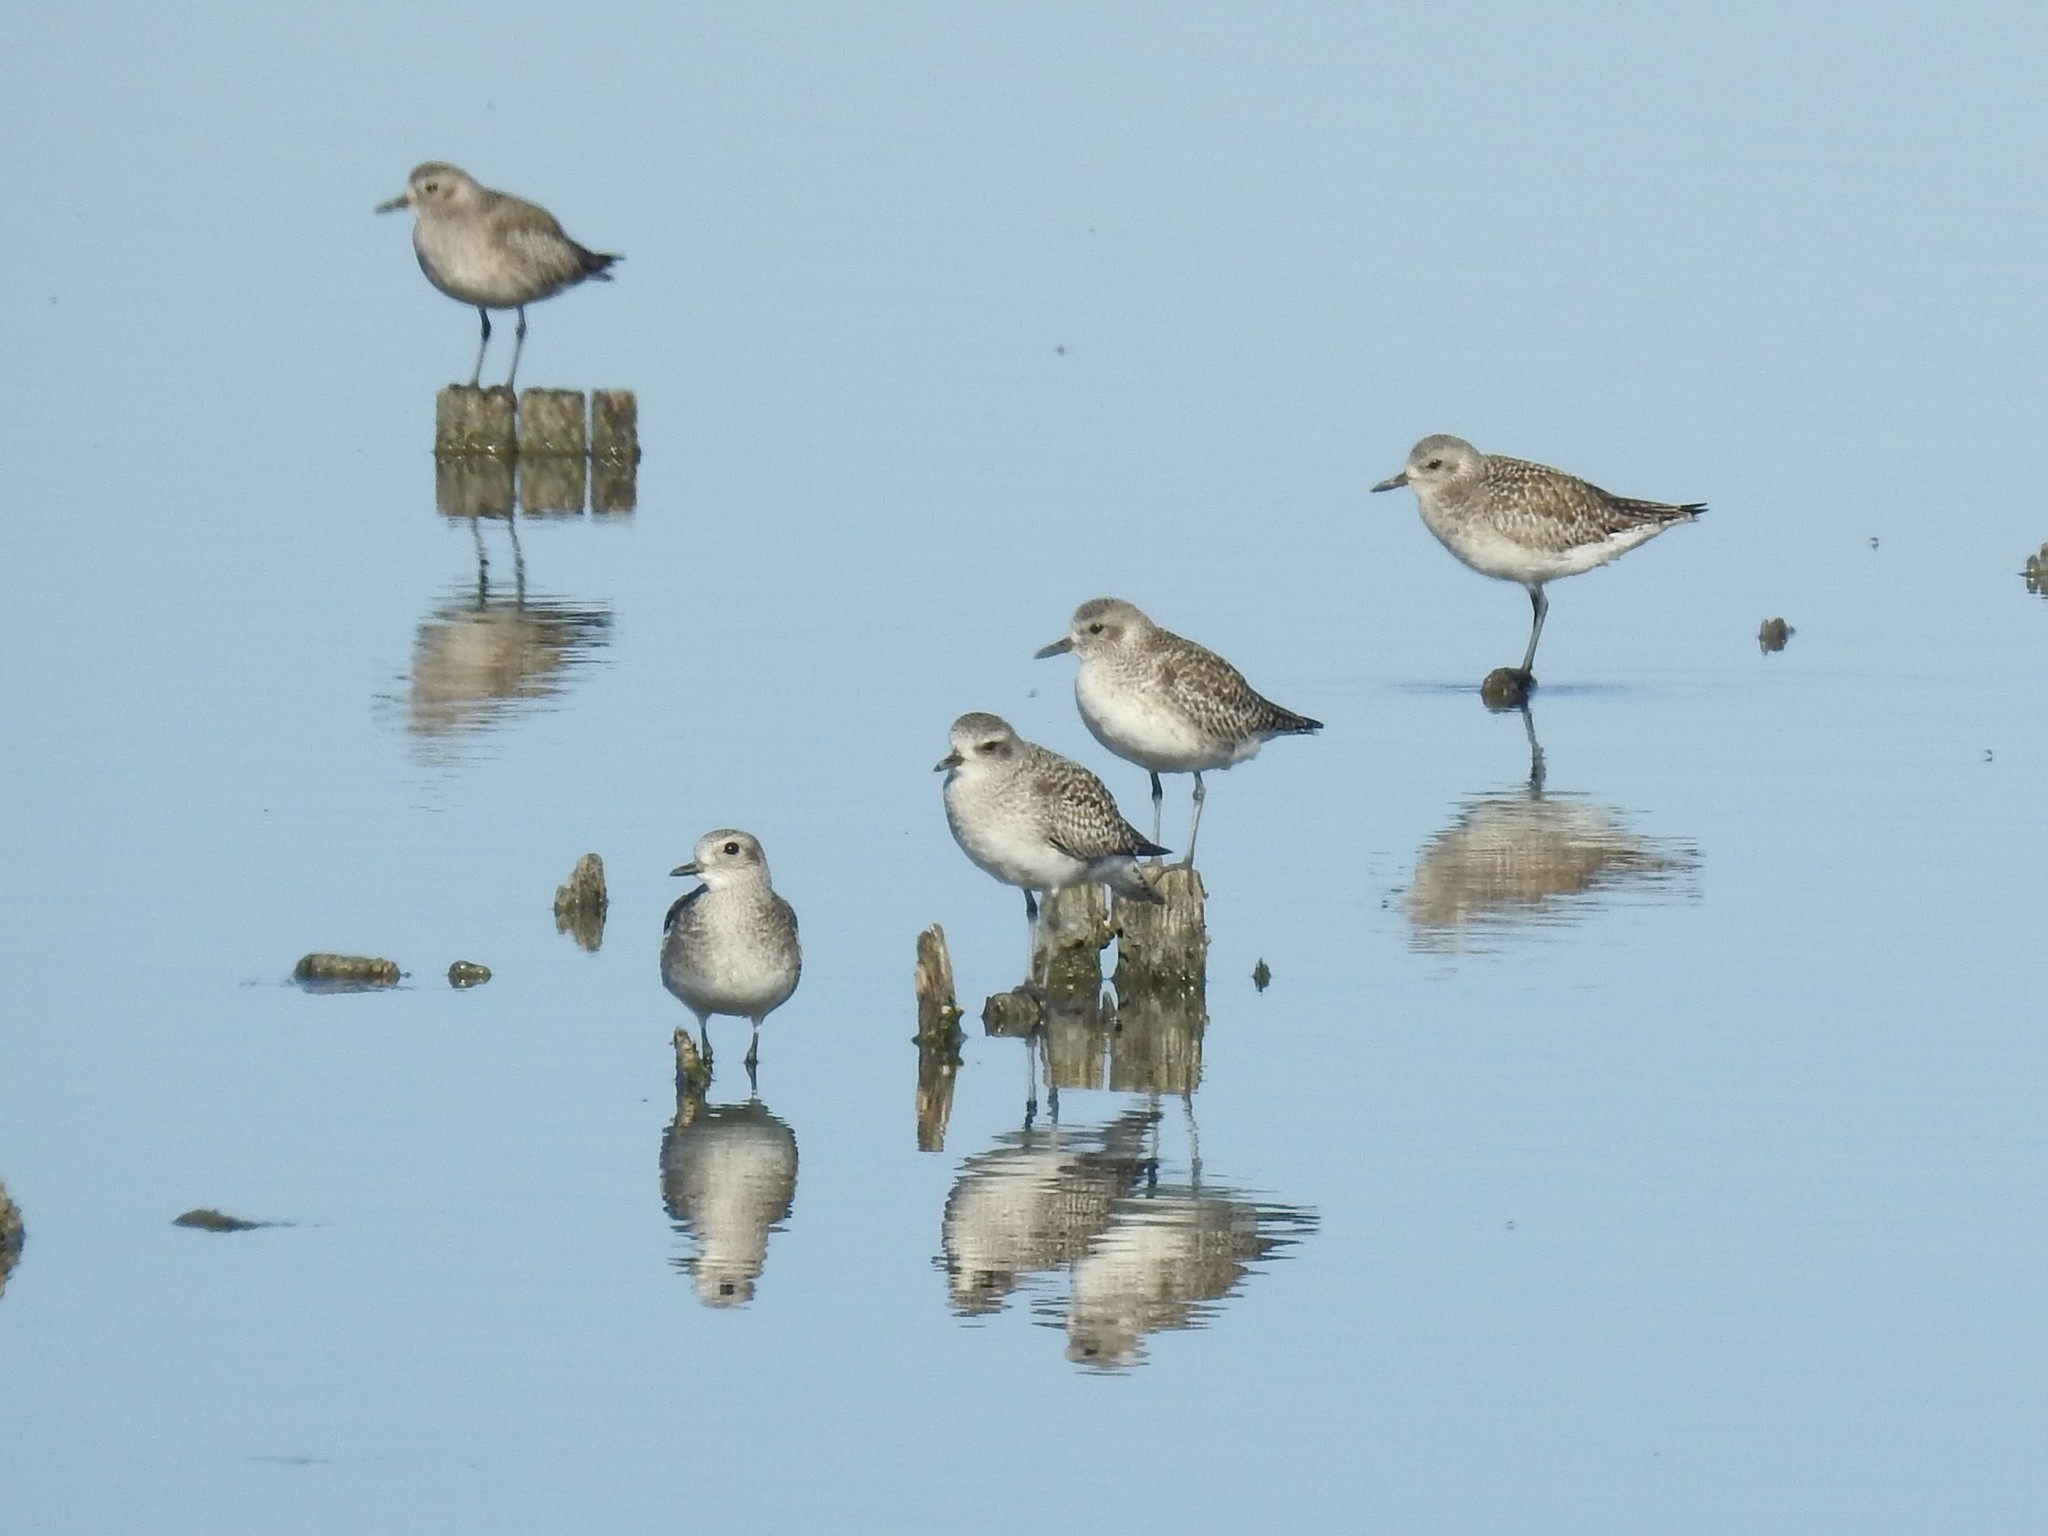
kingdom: Animalia
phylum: Chordata
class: Aves
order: Charadriiformes
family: Charadriidae
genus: Pluvialis
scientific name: Pluvialis squatarola
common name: Grey plover
